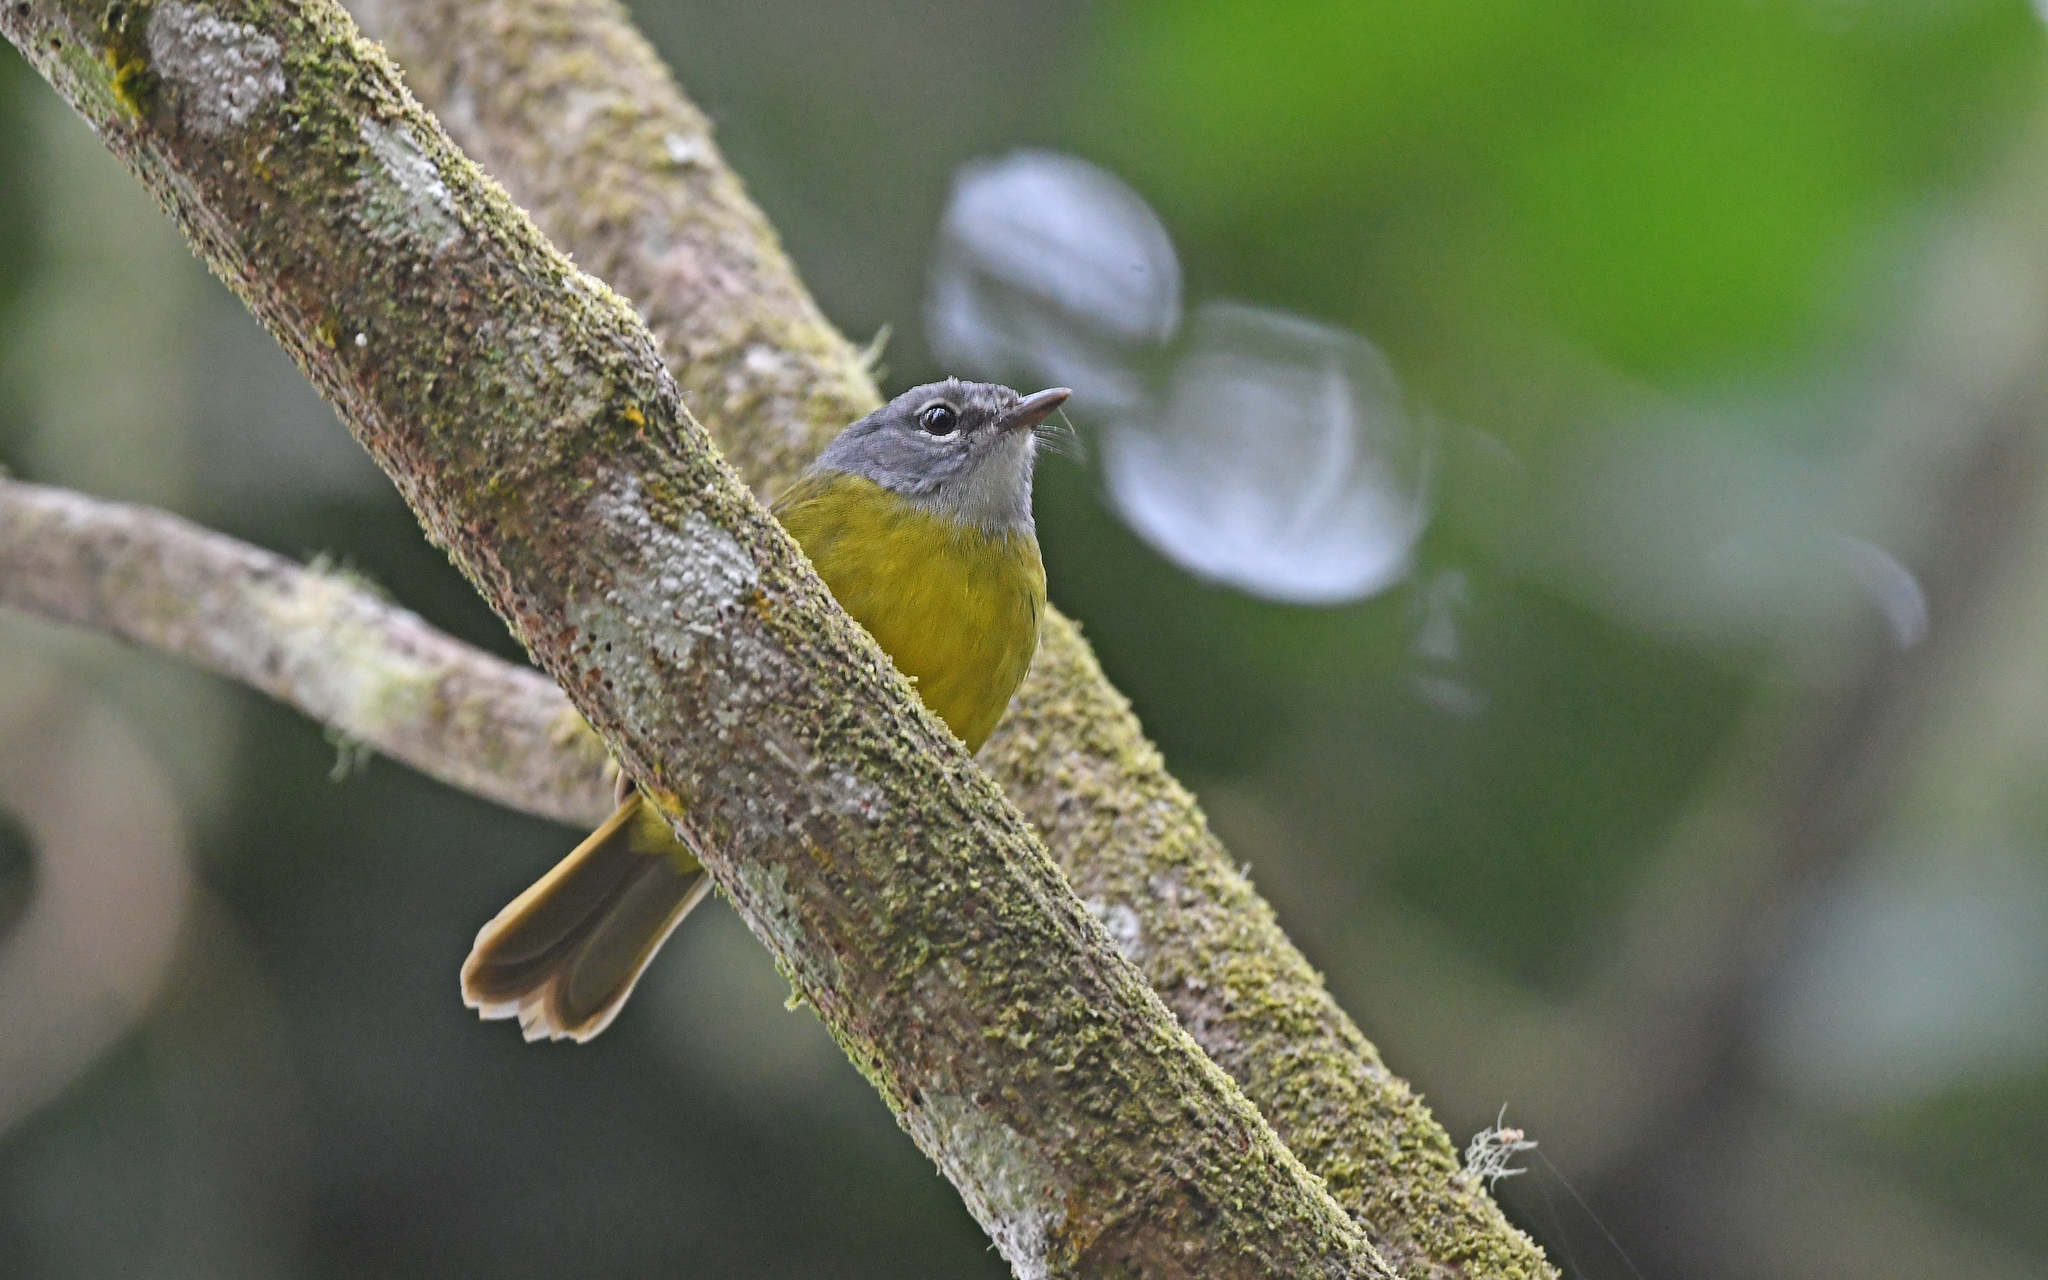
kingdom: Animalia
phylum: Chordata
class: Aves
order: Passeriformes
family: Parulidae
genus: Myiothlypis
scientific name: Myiothlypis conspicillata
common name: White-lored warbler
